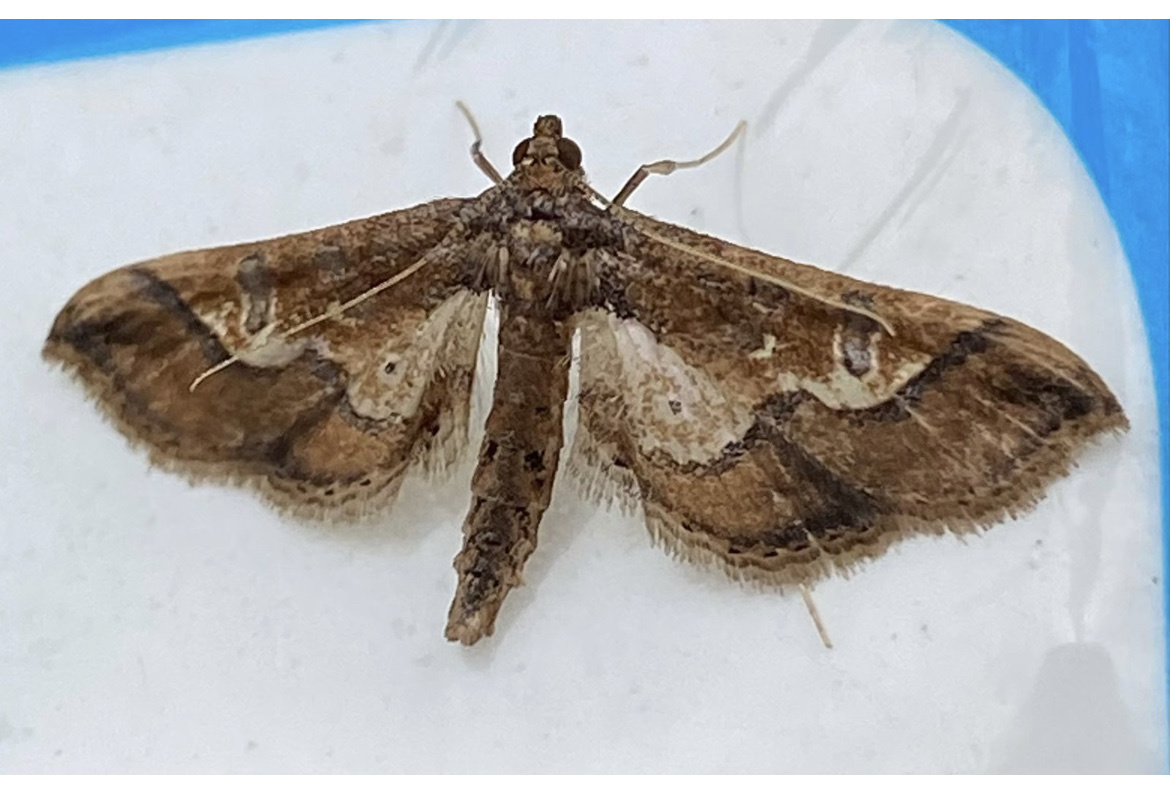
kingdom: Animalia
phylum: Arthropoda
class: Insecta
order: Lepidoptera
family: Crambidae
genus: Hydriris
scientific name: Hydriris ornatalis
